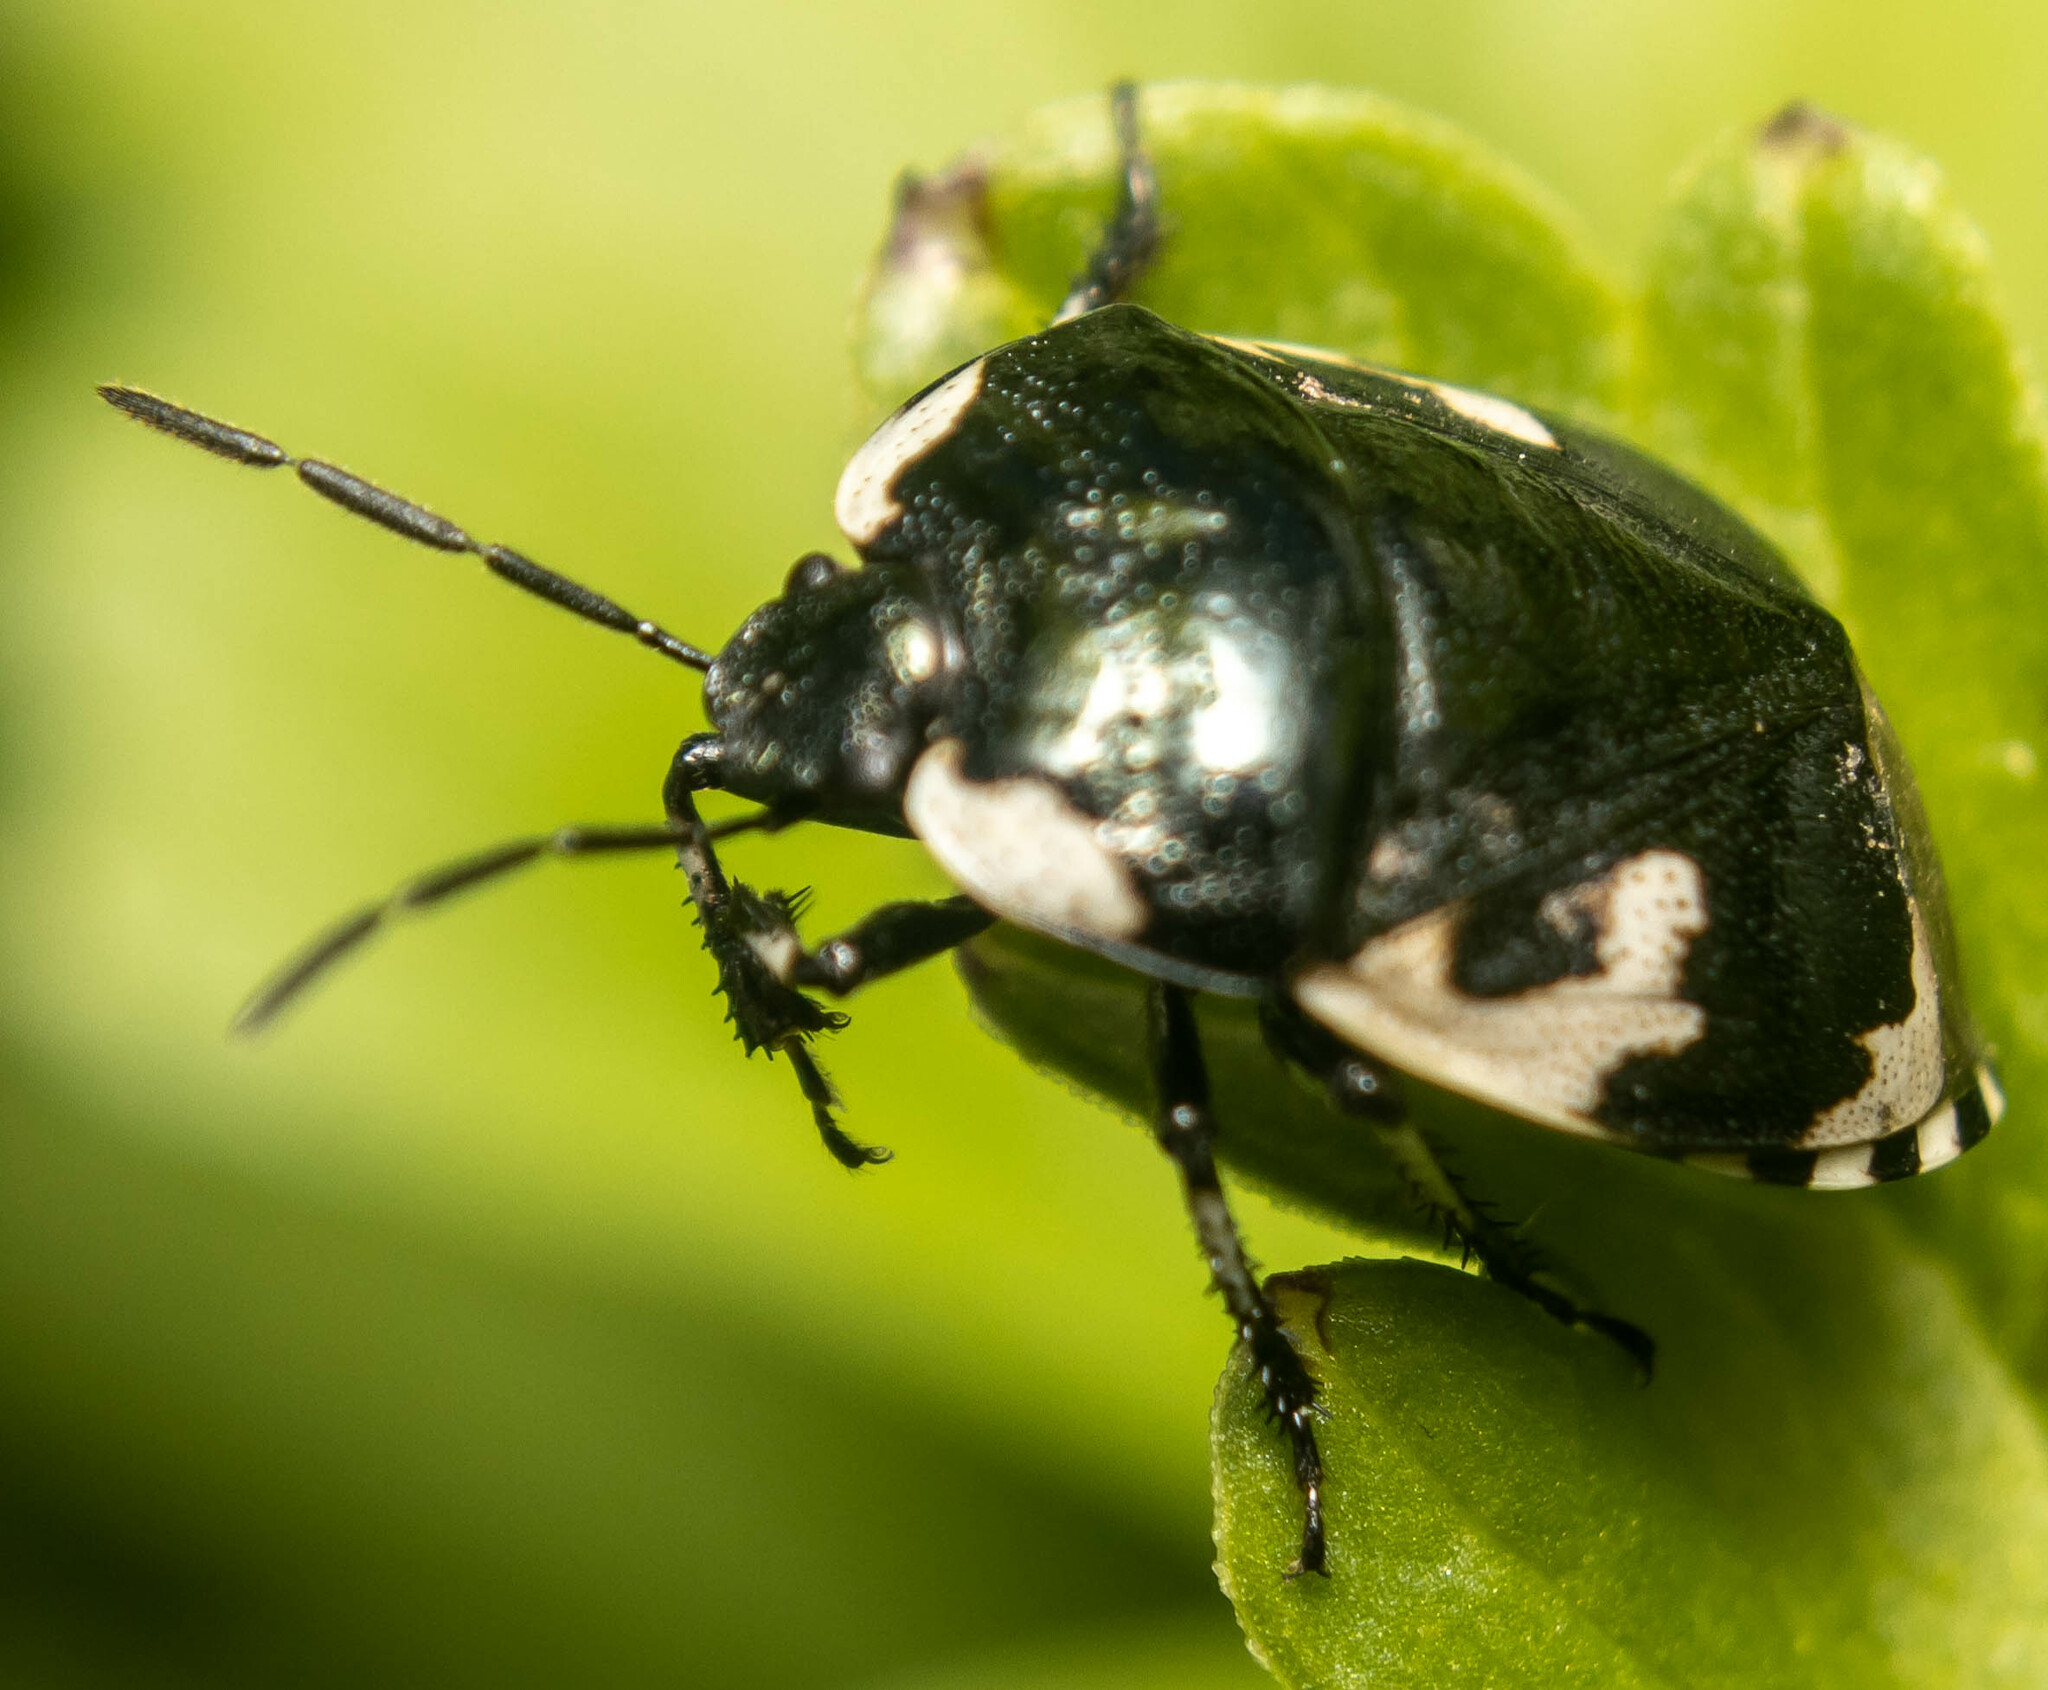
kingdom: Animalia
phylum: Arthropoda
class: Insecta
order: Hemiptera
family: Cydnidae
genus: Tritomegas
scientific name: Tritomegas bicolor
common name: Pied shieldbug
